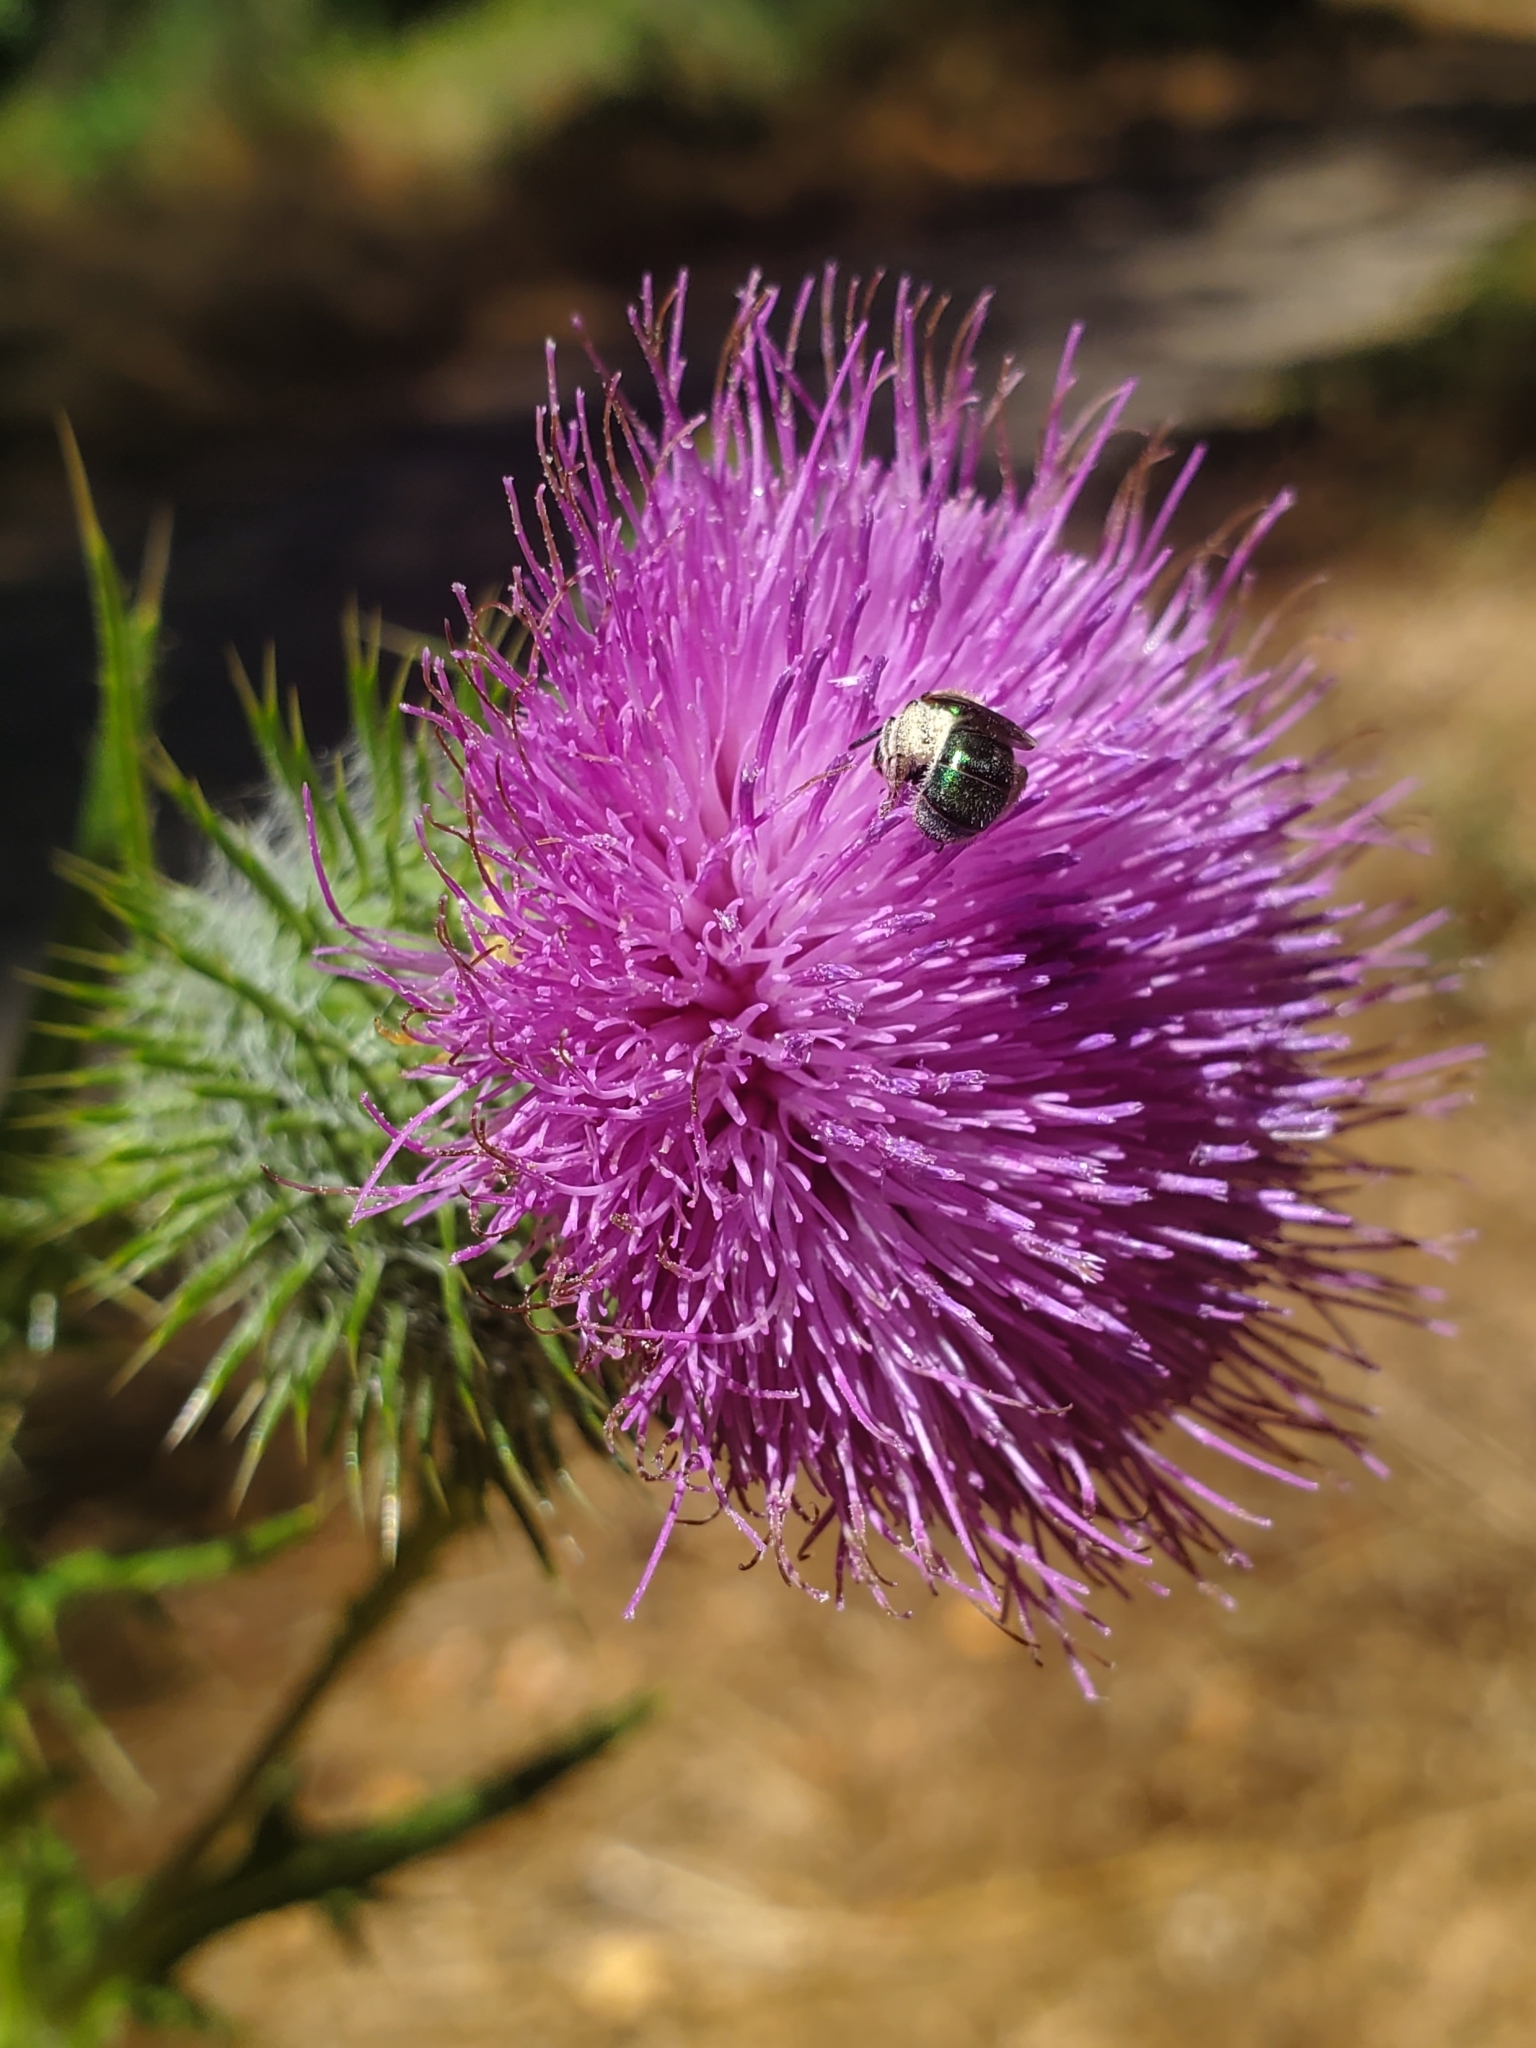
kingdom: Plantae
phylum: Tracheophyta
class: Magnoliopsida
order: Asterales
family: Asteraceae
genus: Cirsium
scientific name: Cirsium vulgare
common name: Bull thistle
